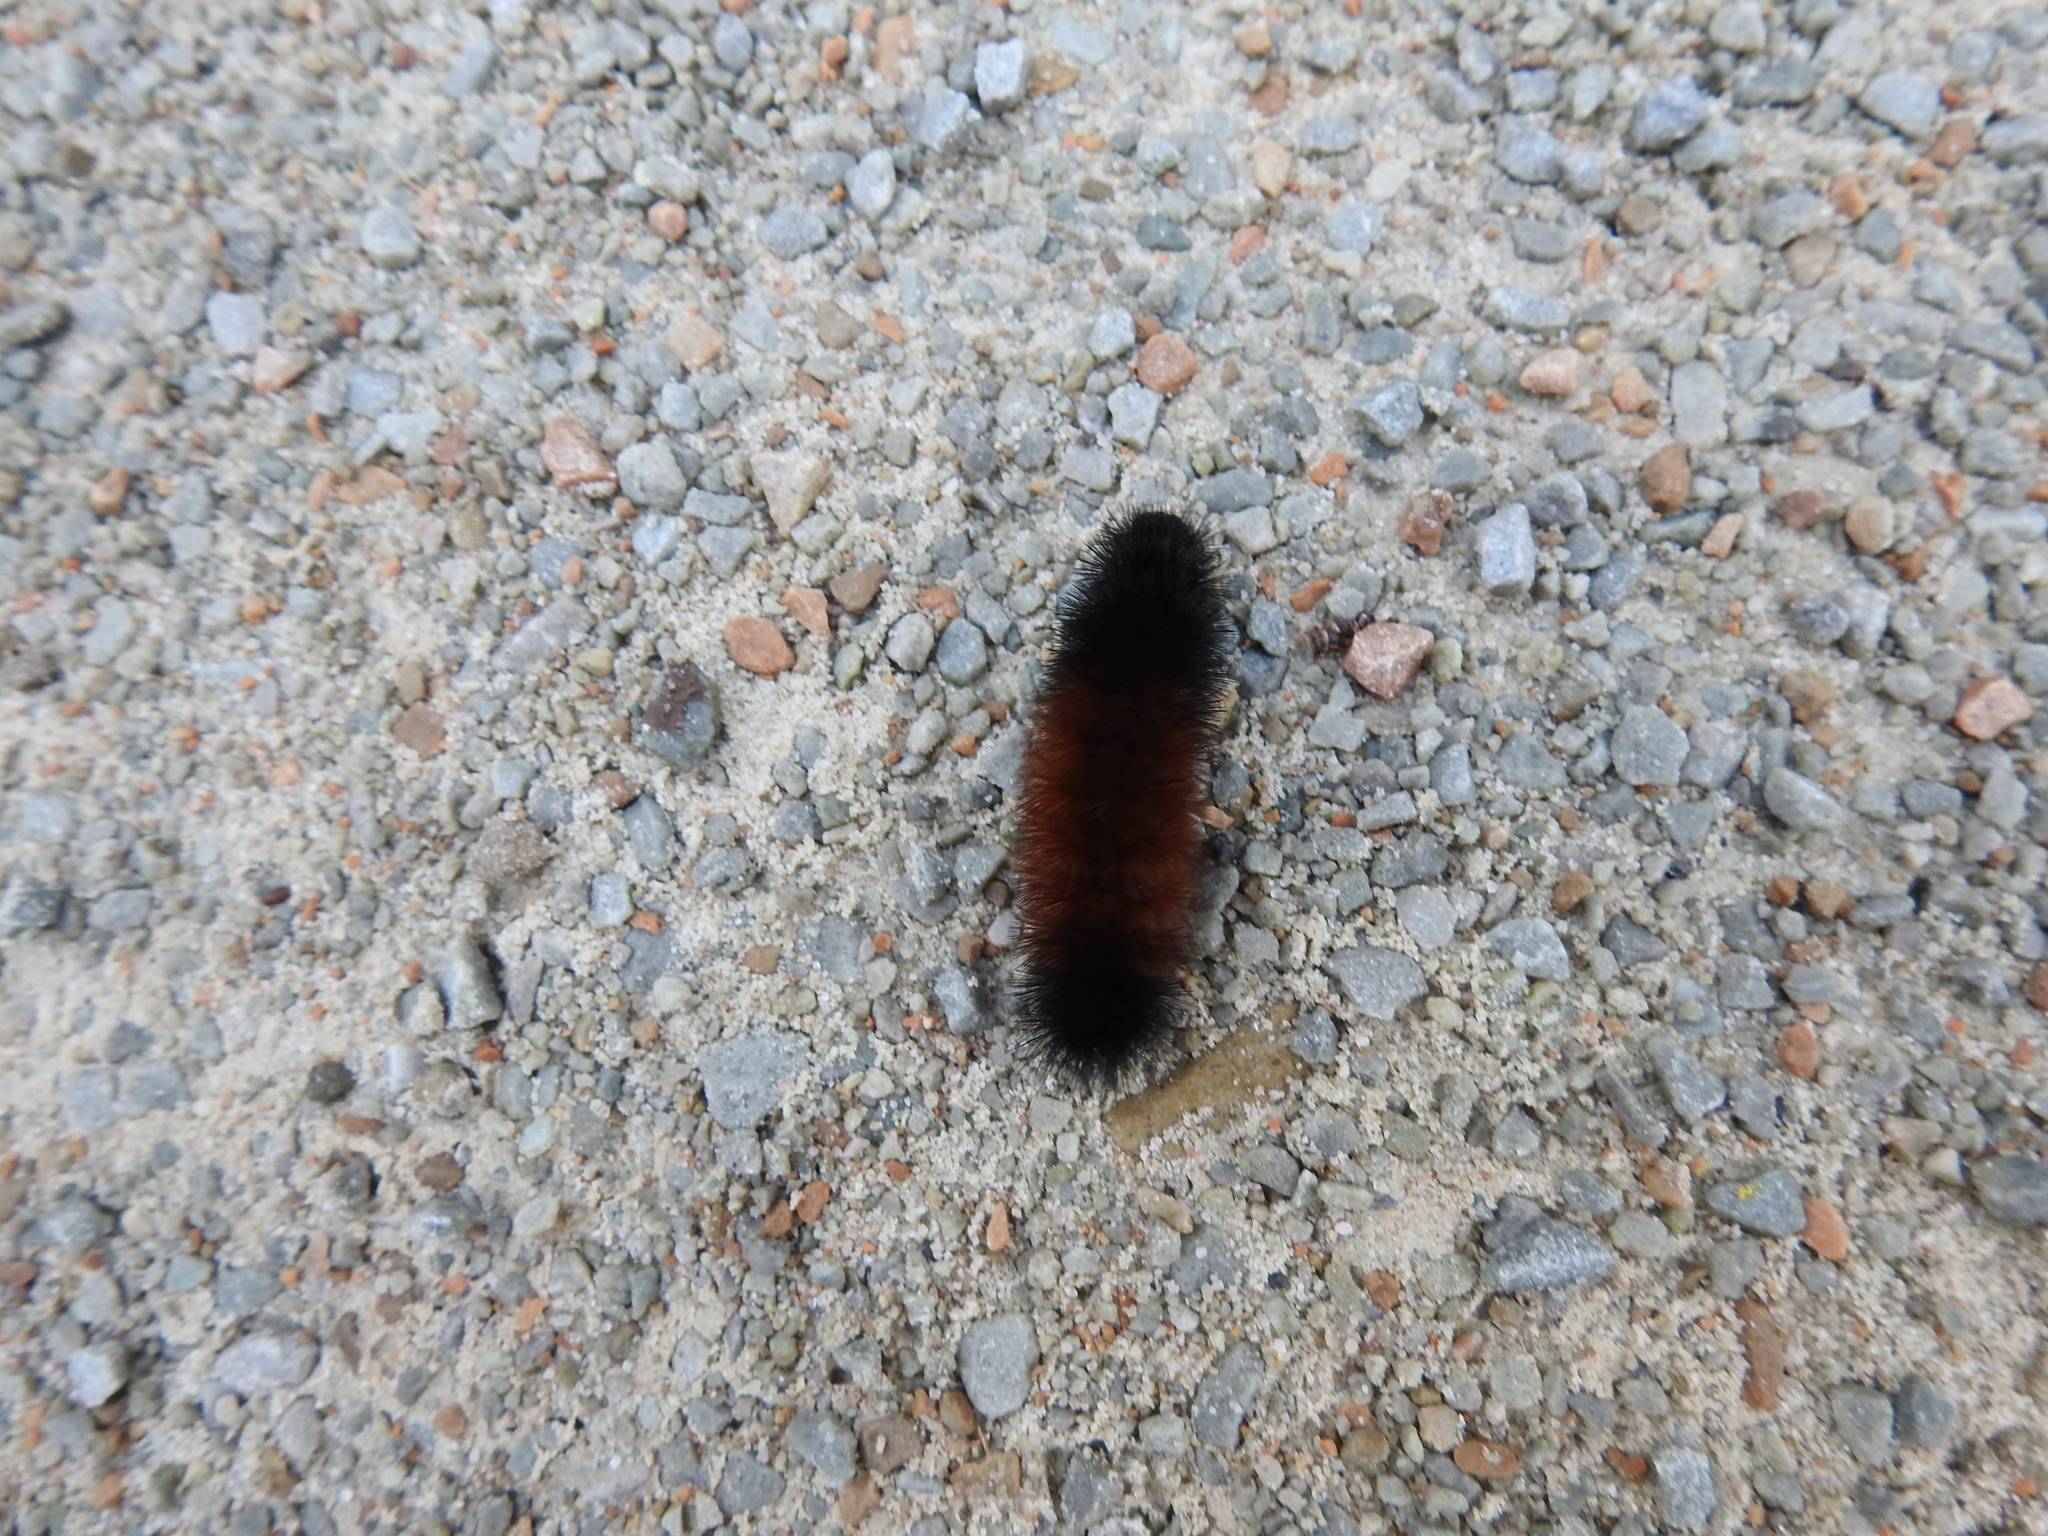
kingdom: Animalia
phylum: Arthropoda
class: Insecta
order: Lepidoptera
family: Erebidae
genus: Pyrrharctia
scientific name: Pyrrharctia isabella
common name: Isabella tiger moth
